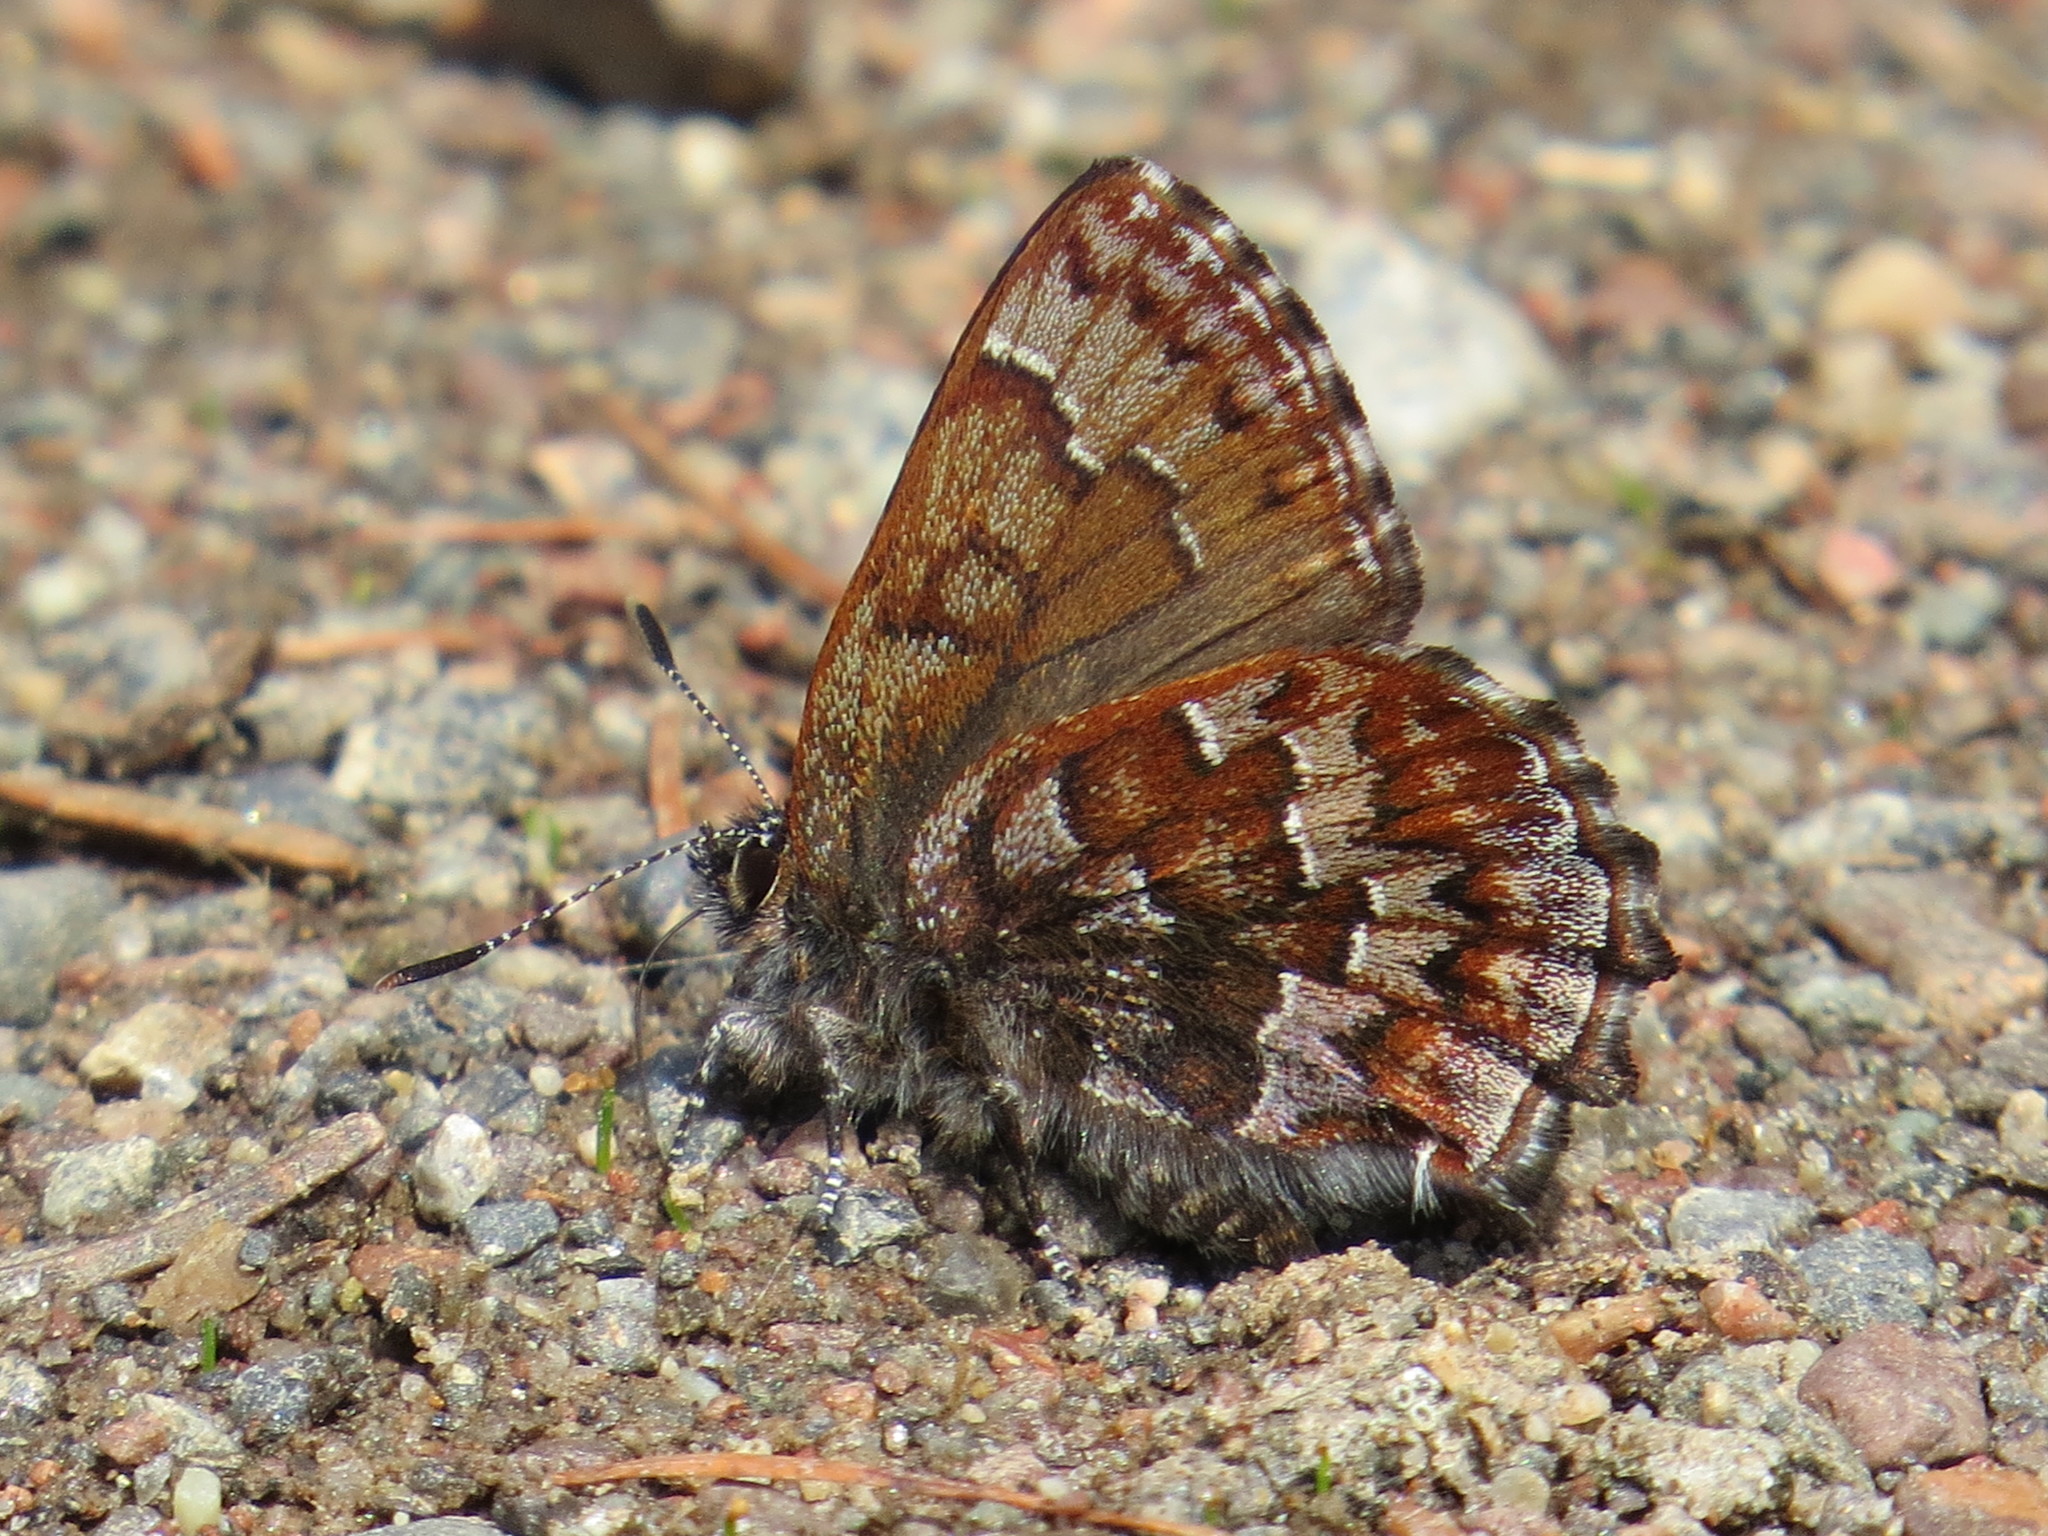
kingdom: Animalia
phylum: Arthropoda
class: Insecta
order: Lepidoptera
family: Lycaenidae
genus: Incisalia
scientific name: Incisalia niphon
